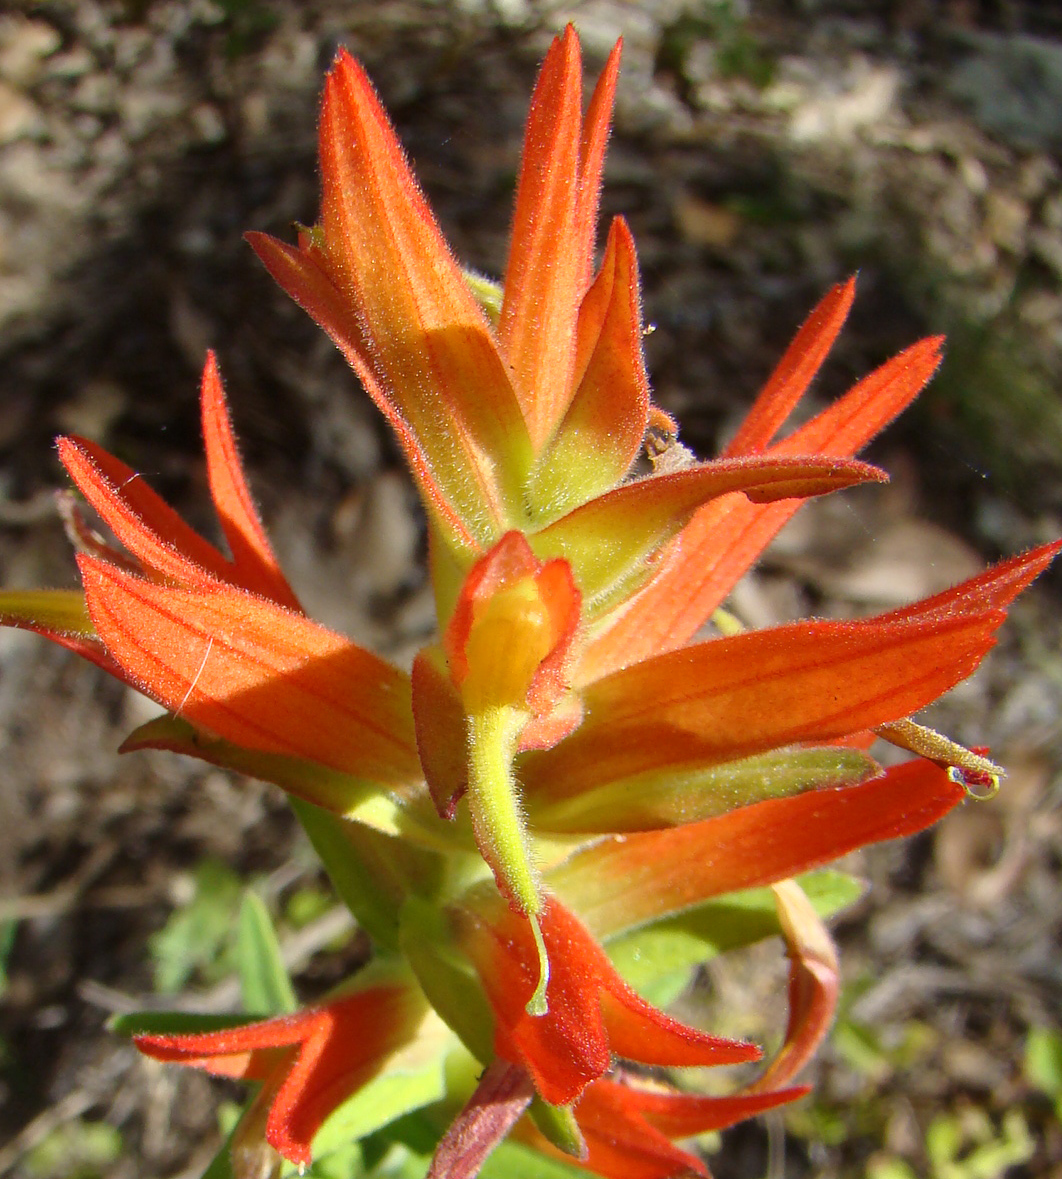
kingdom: Plantae
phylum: Tracheophyta
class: Magnoliopsida
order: Lamiales
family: Orobanchaceae
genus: Castilleja
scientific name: Castilleja auriculata
